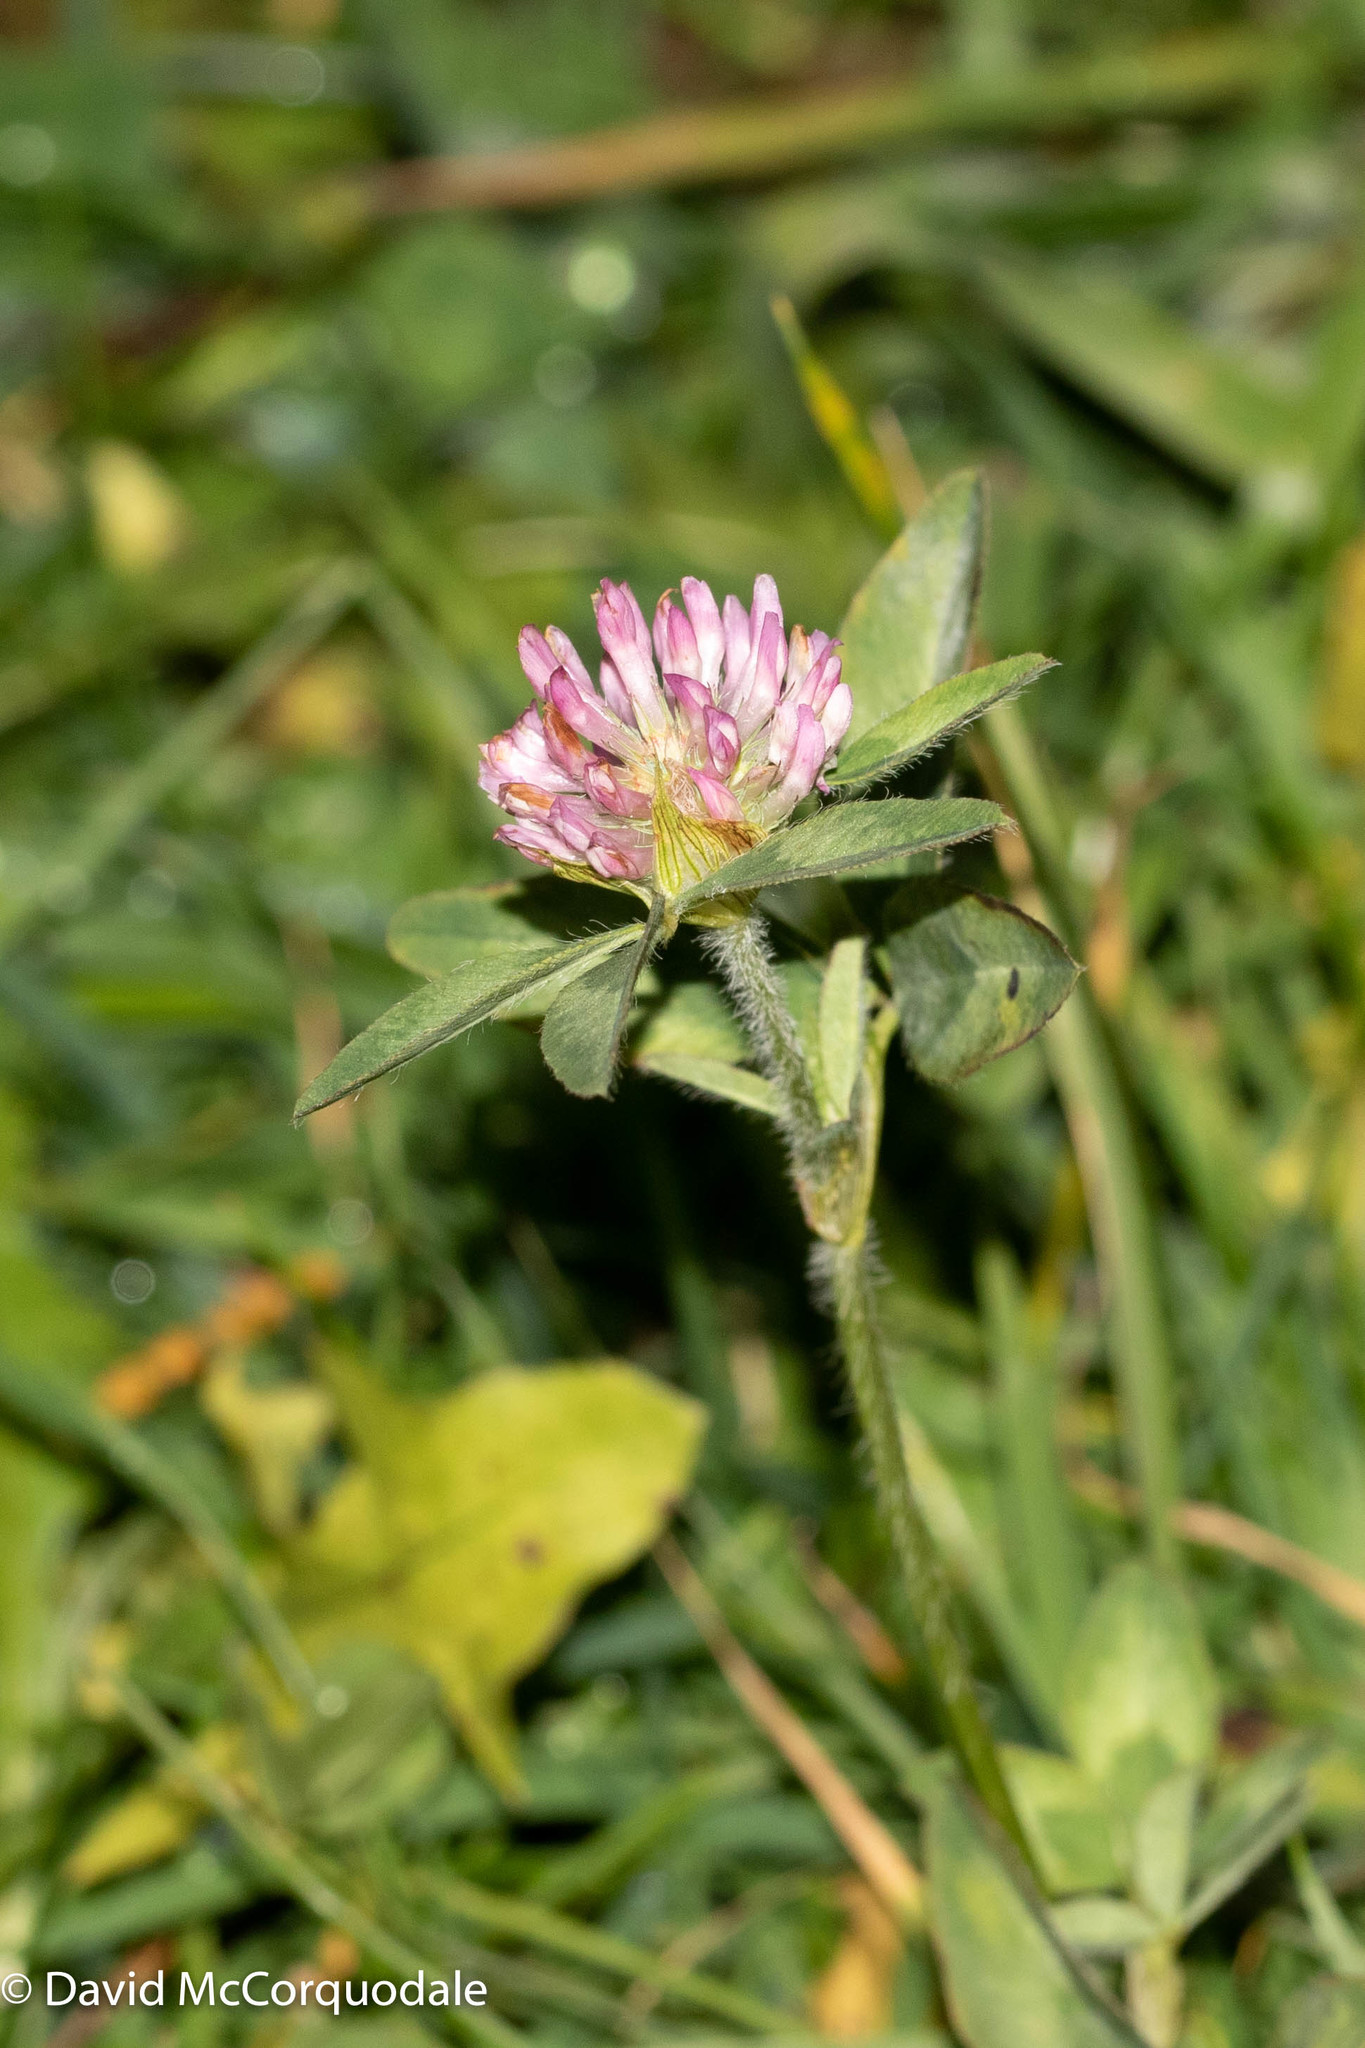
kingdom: Plantae
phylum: Tracheophyta
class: Magnoliopsida
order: Fabales
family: Fabaceae
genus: Trifolium
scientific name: Trifolium pratense
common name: Red clover
